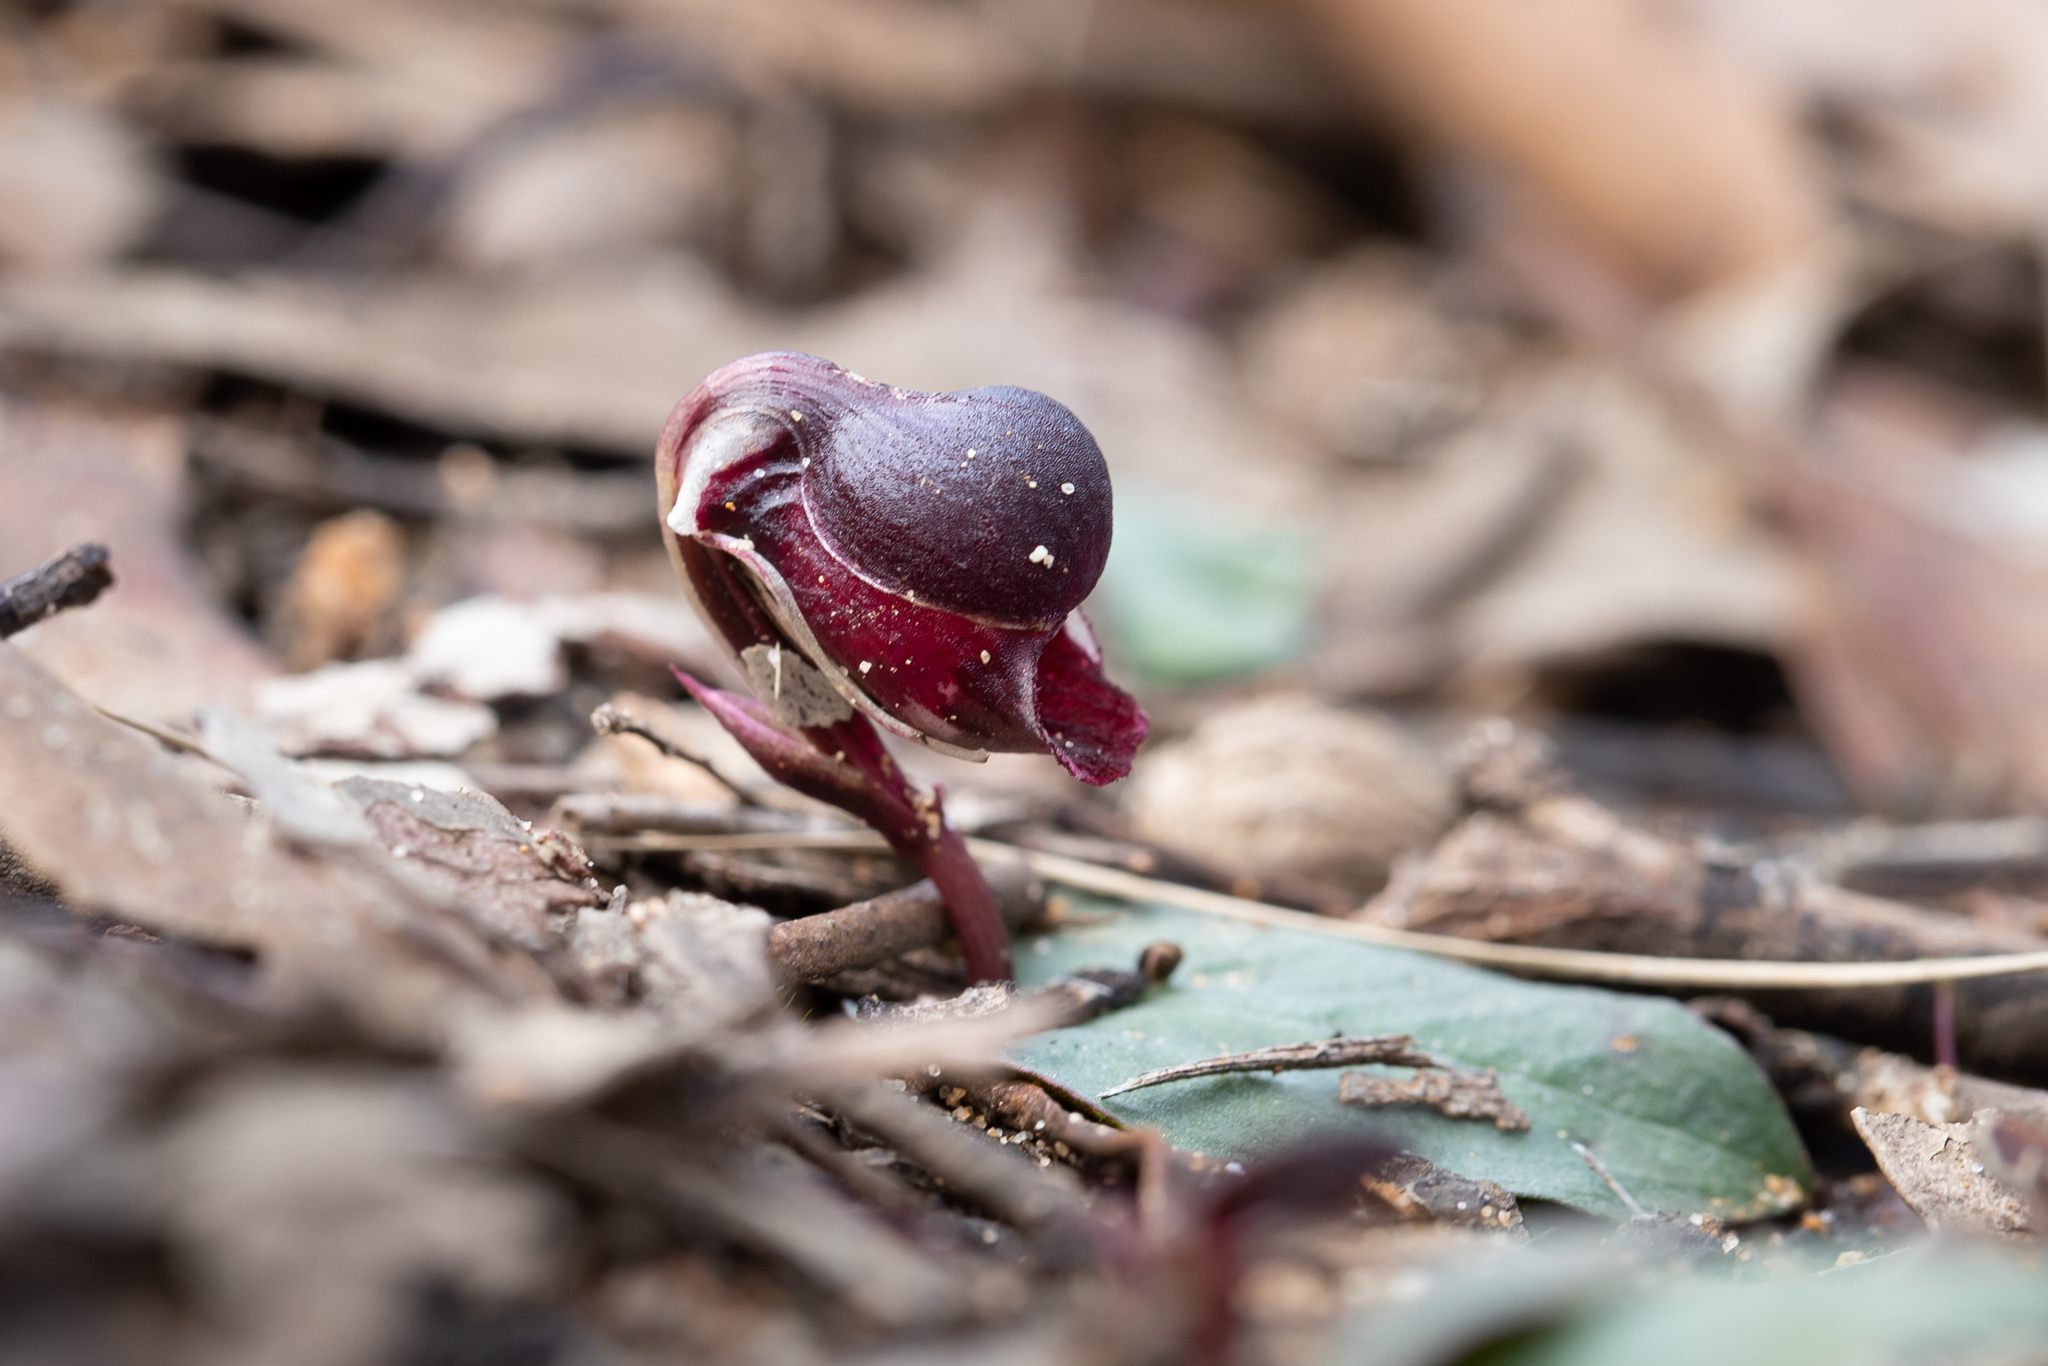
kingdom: Plantae
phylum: Tracheophyta
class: Liliopsida
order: Asparagales
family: Orchidaceae
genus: Corybas
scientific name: Corybas unguiculatus
